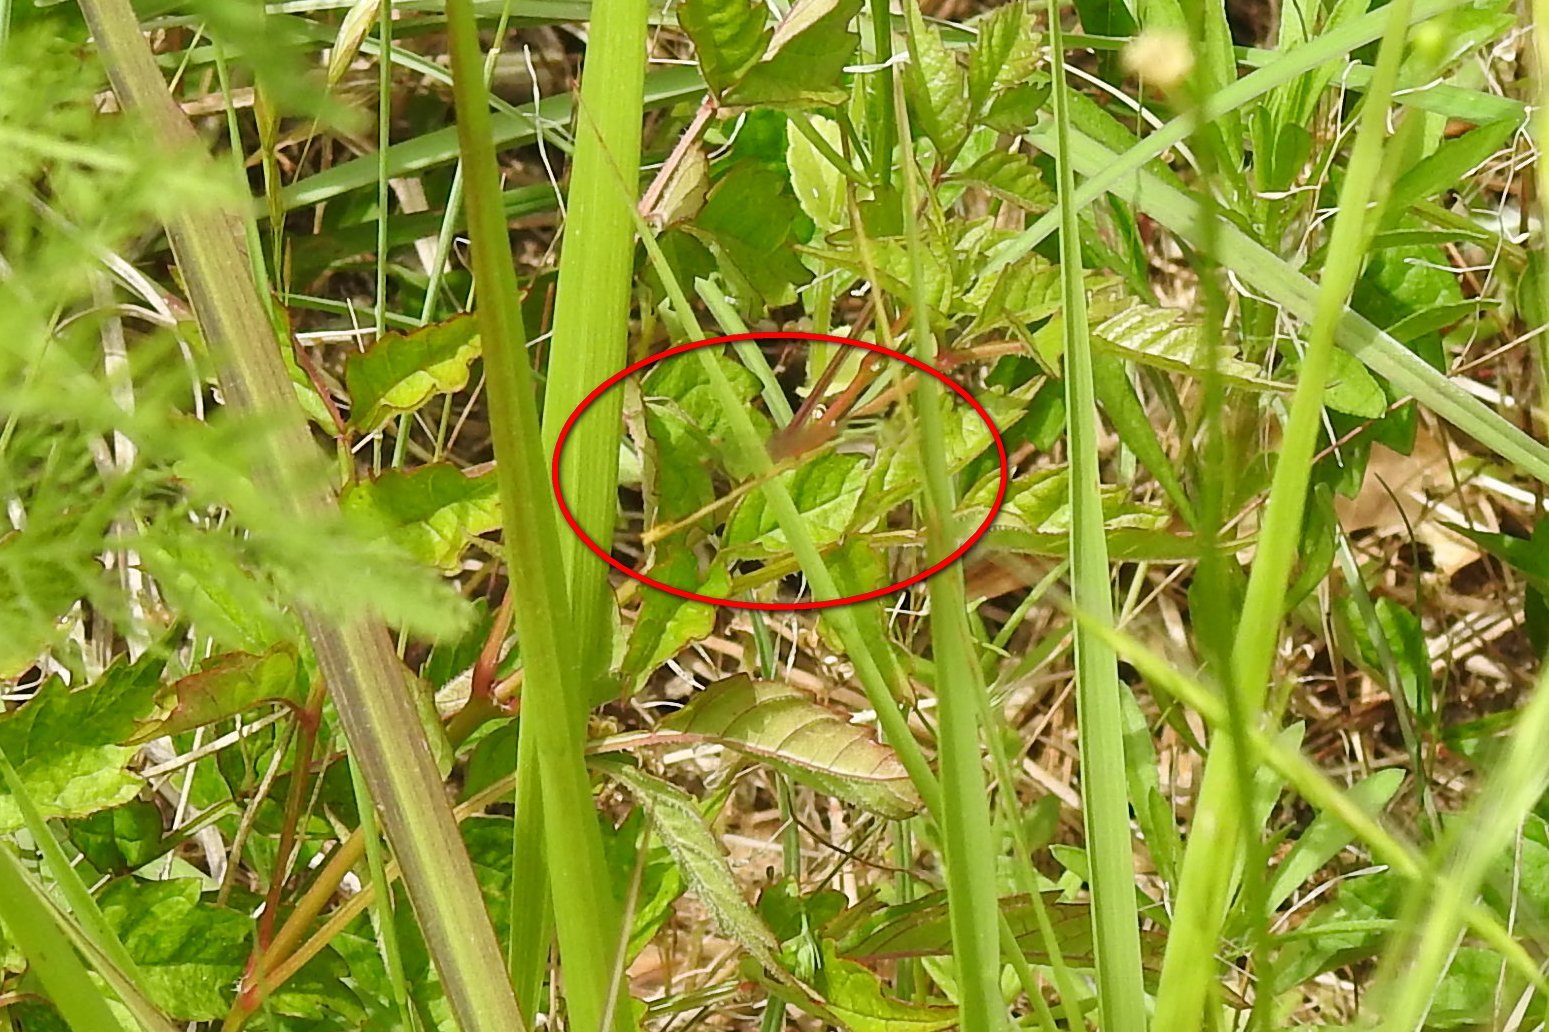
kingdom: Animalia
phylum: Arthropoda
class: Insecta
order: Odonata
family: Coenagrionidae
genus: Ischnura
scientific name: Ischnura hastata
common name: Citrine forktail
